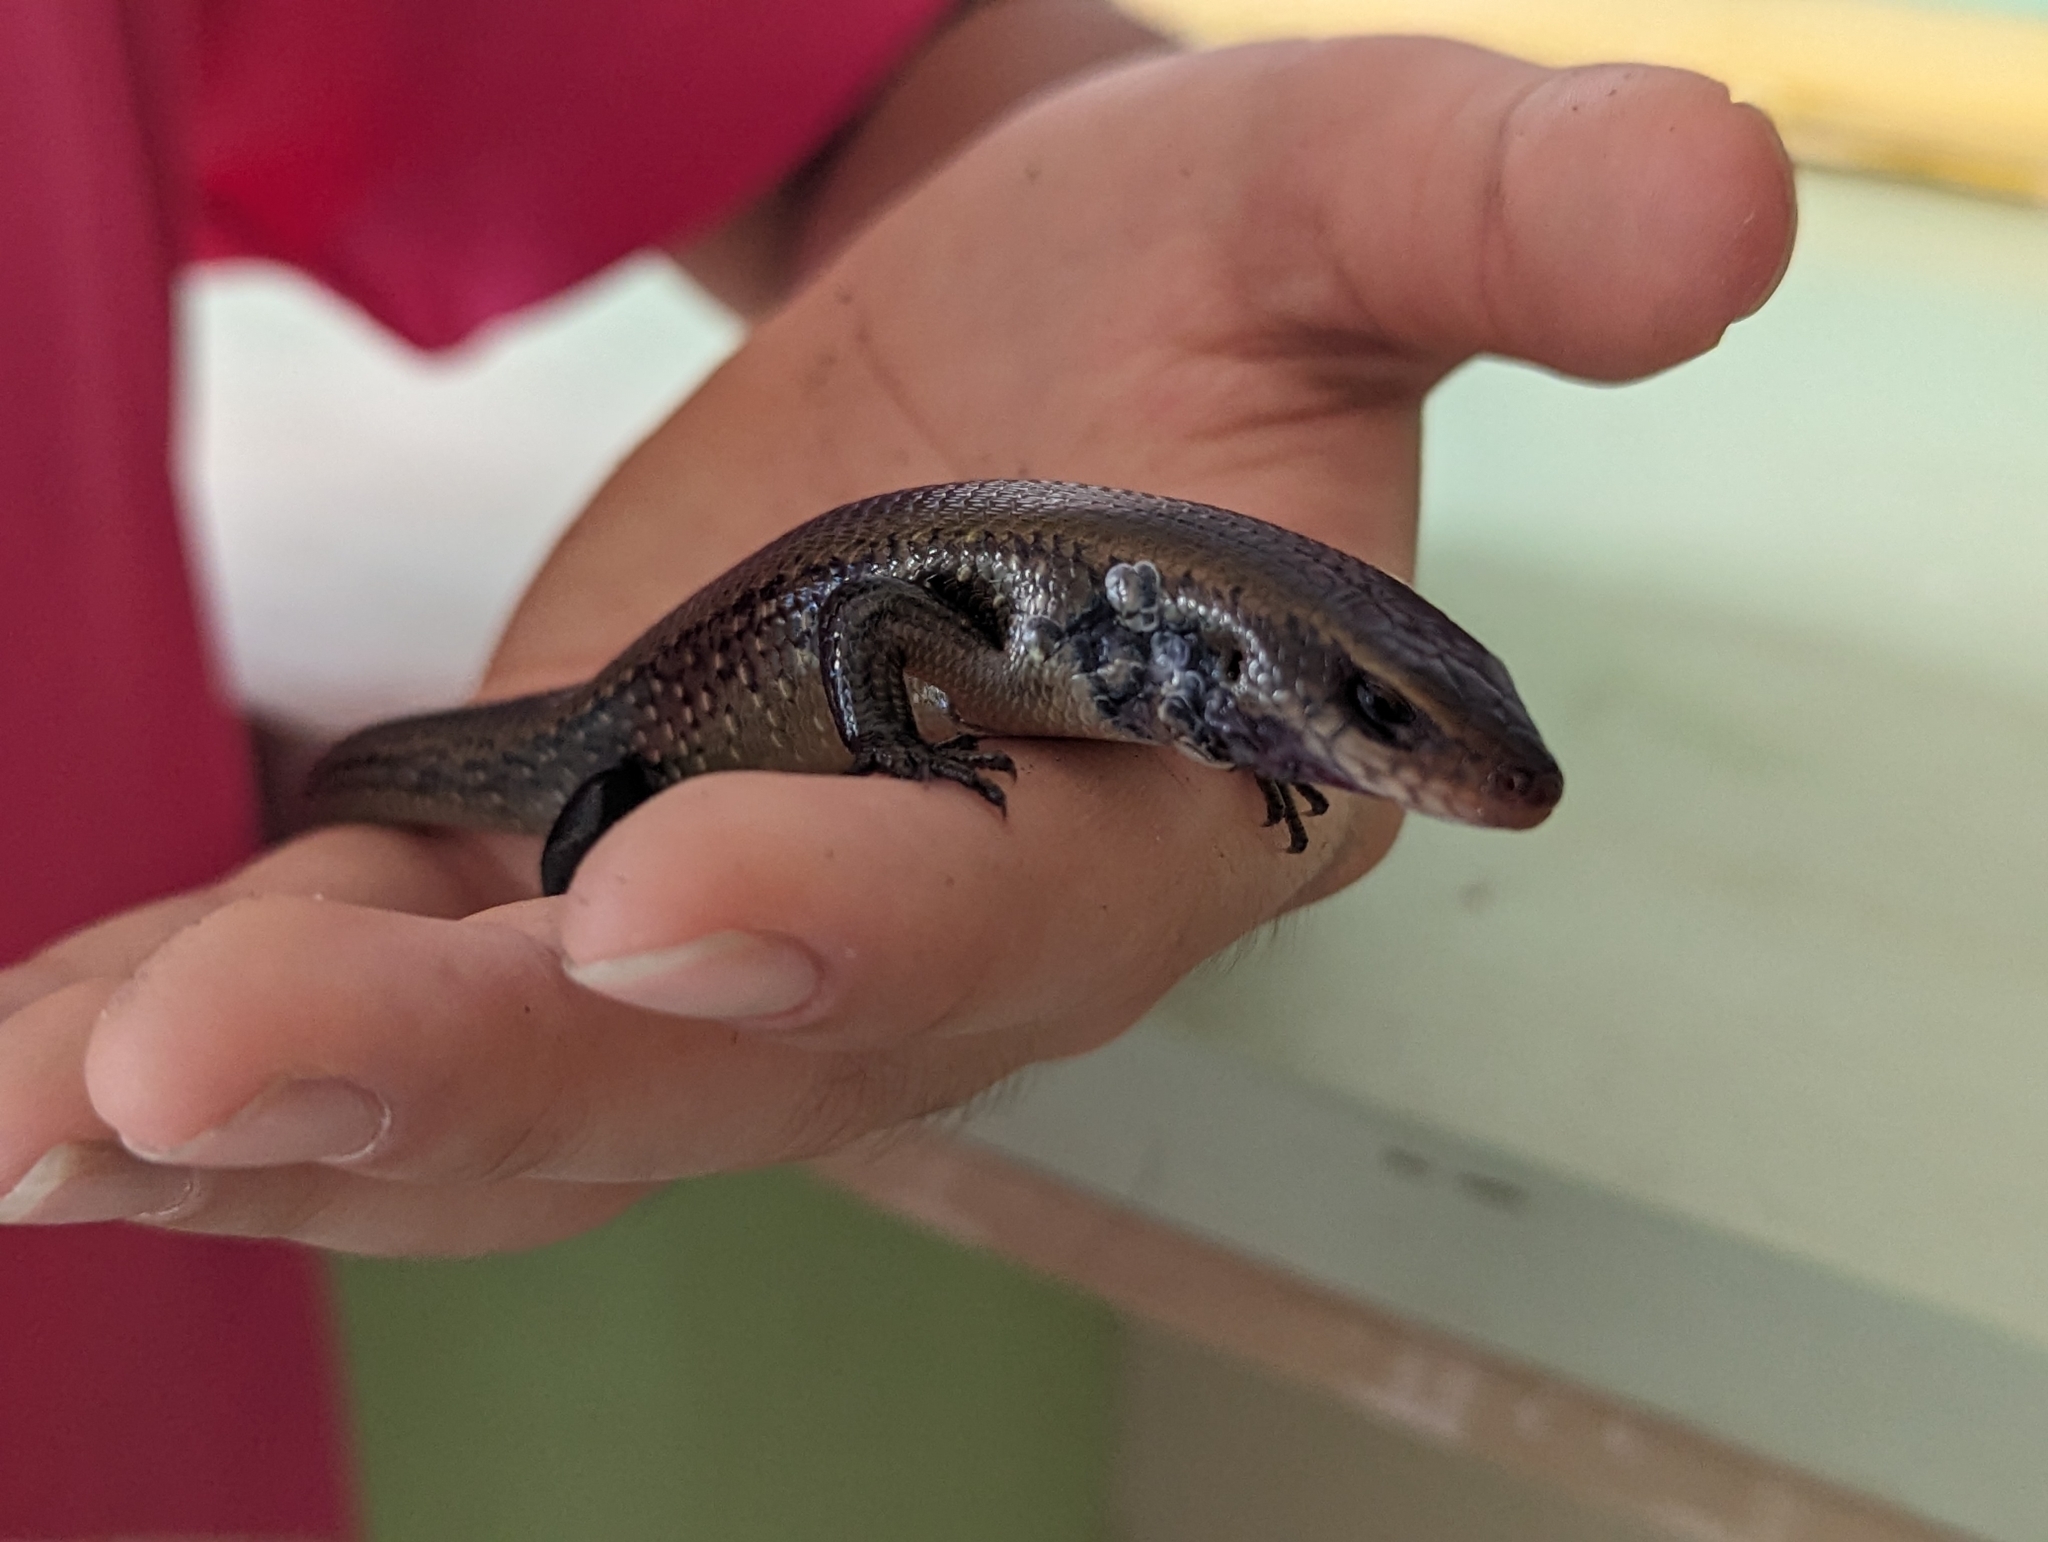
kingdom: Animalia
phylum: Chordata
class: Squamata
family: Scincidae
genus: Eutropis
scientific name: Eutropis multifasciata
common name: Common mabuya
